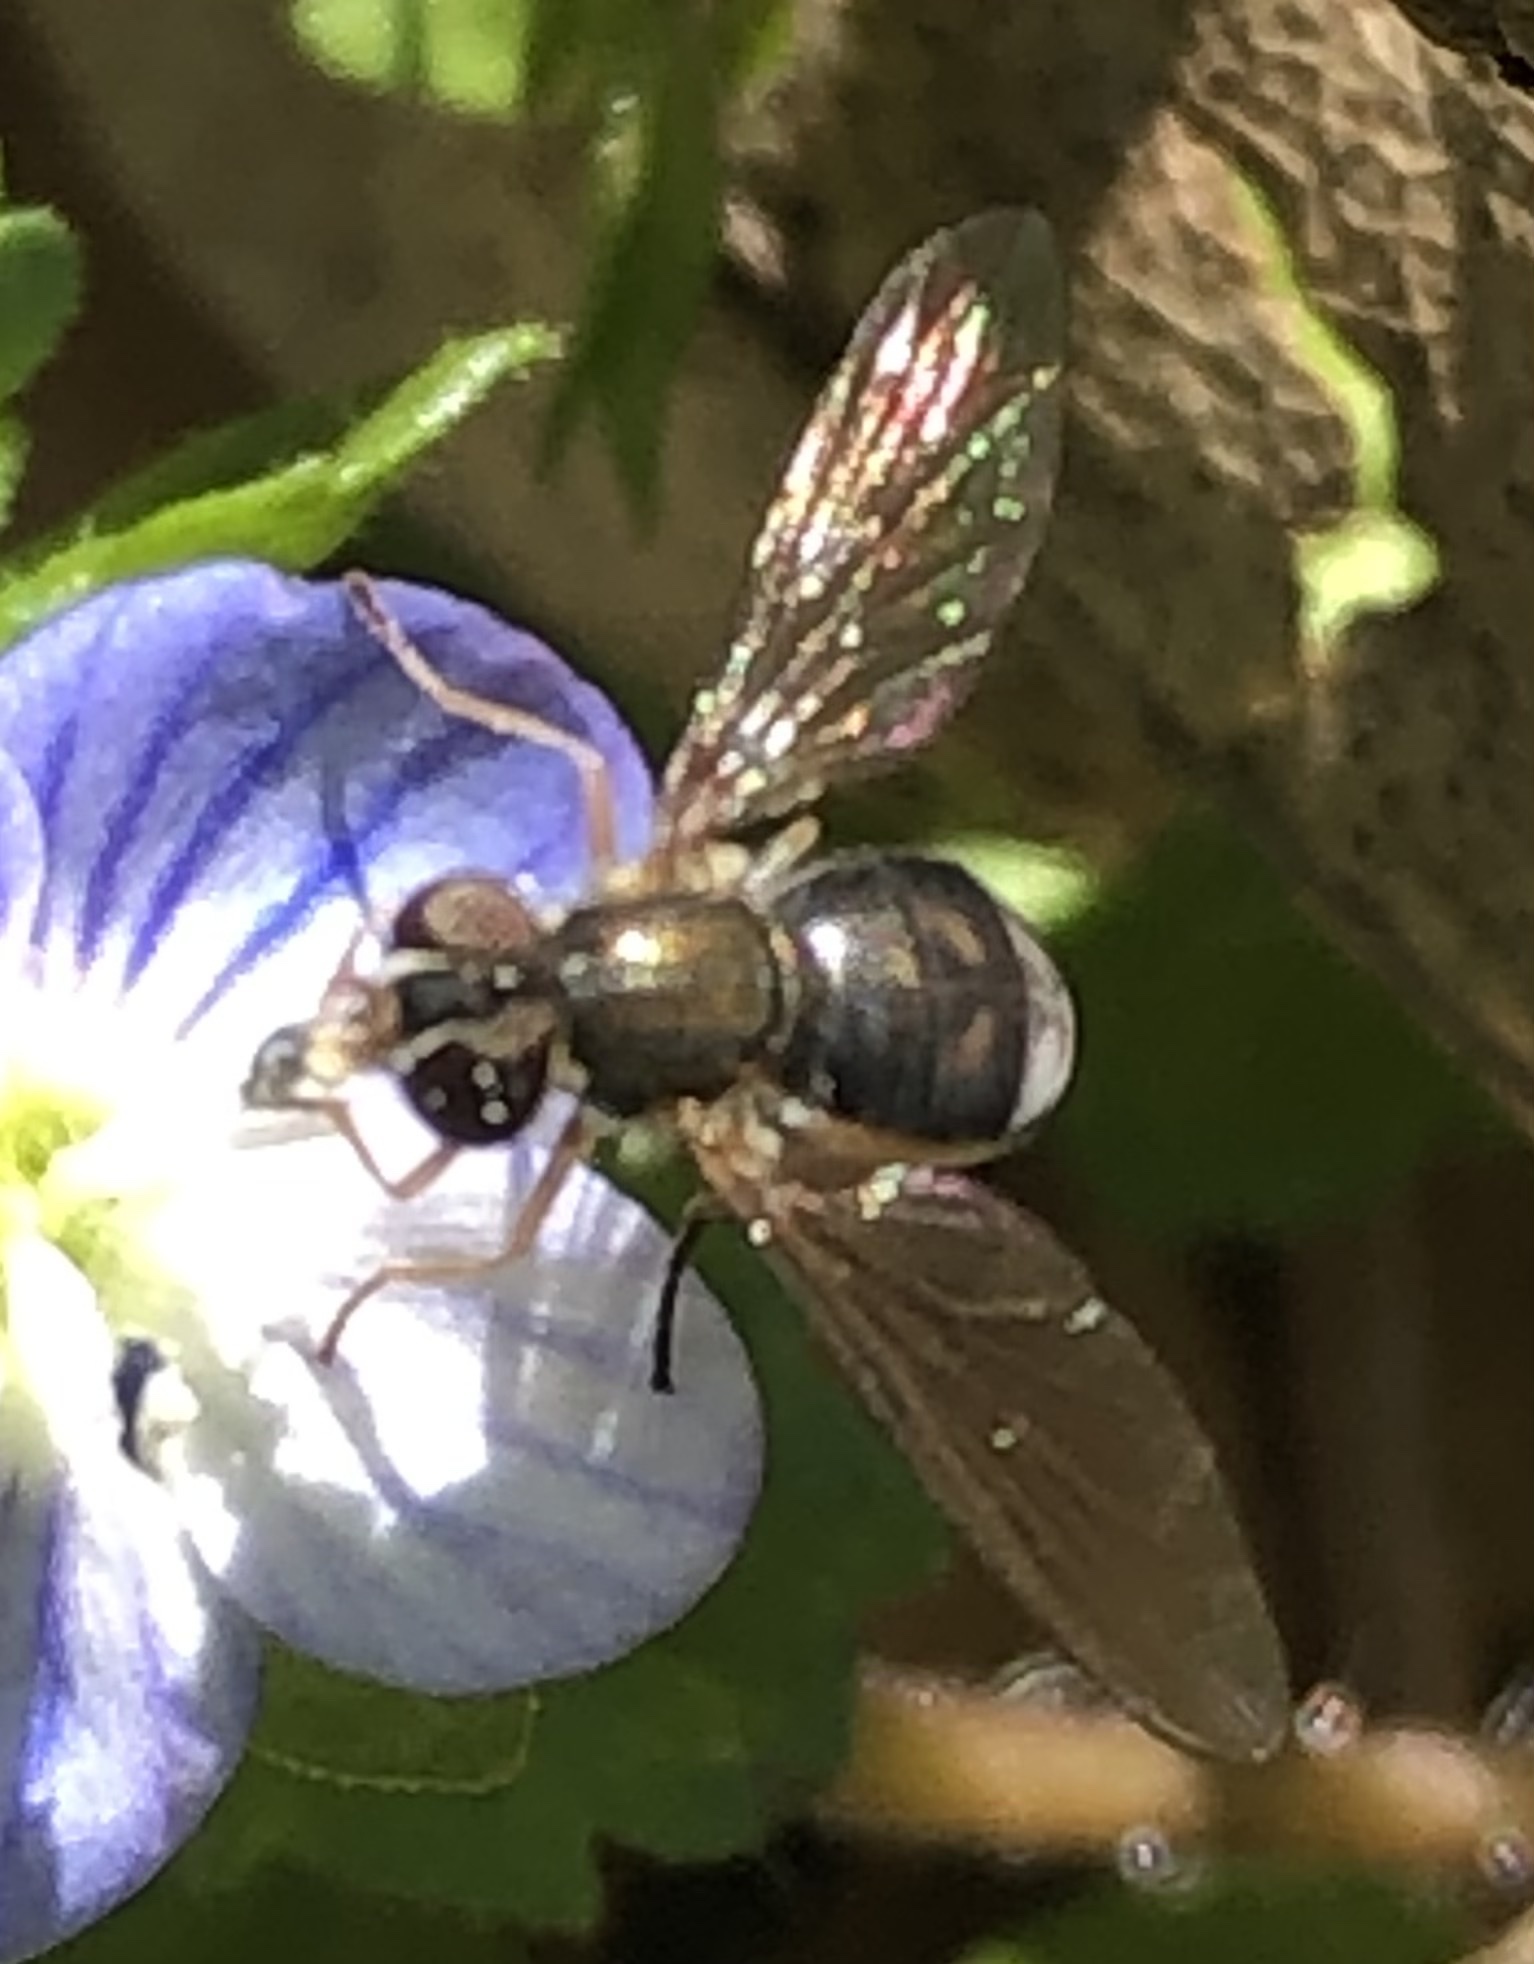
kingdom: Animalia
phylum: Arthropoda
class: Insecta
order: Diptera
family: Syrphidae
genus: Toxomerus
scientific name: Toxomerus marginatus
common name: Syrphid fly
